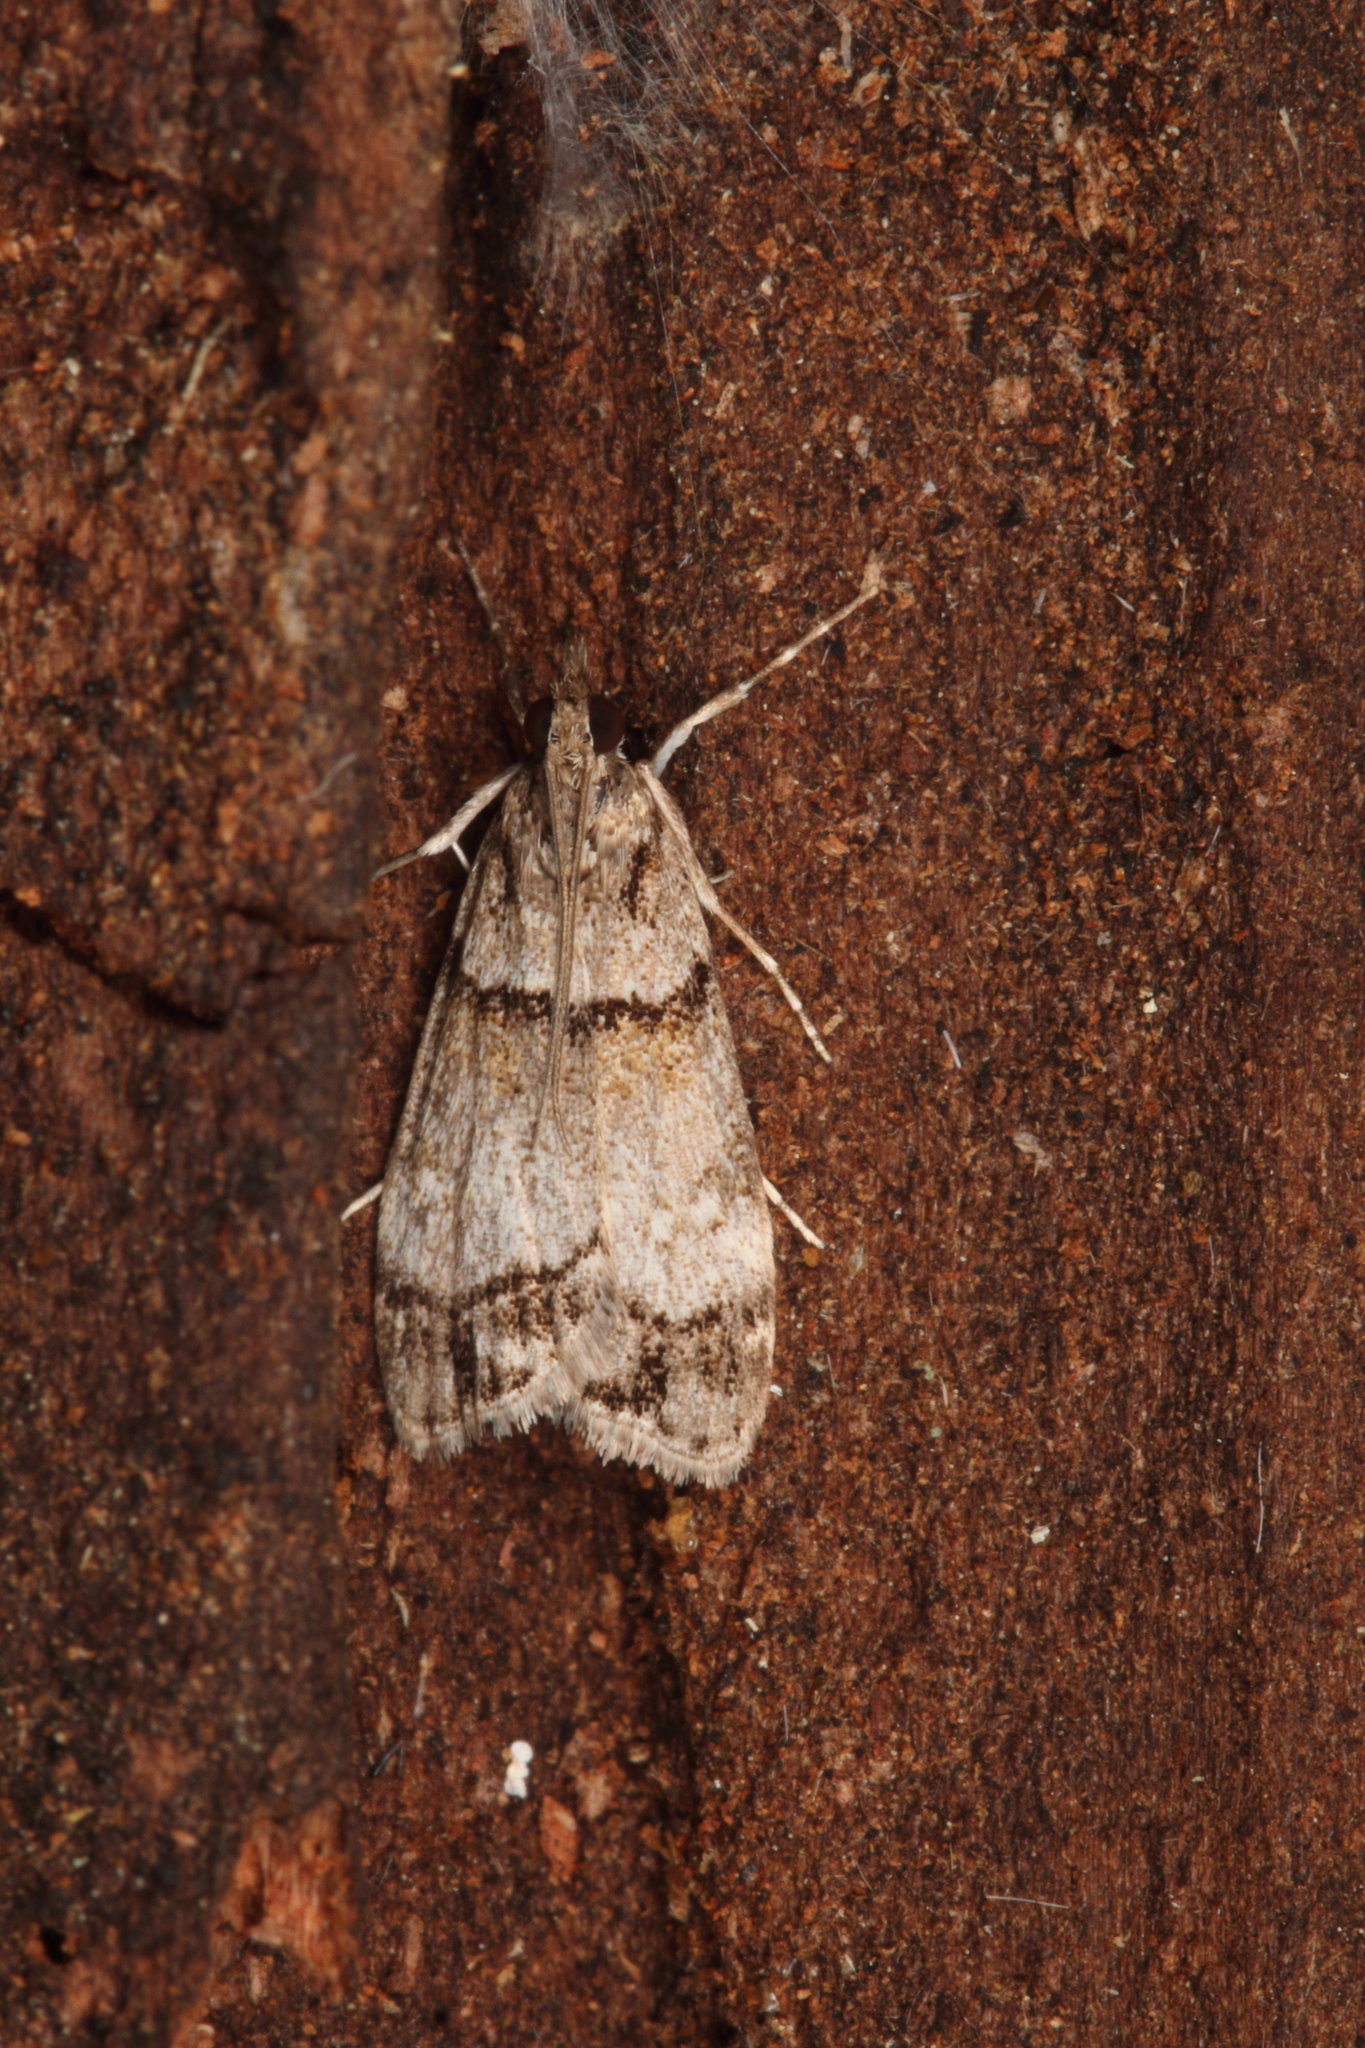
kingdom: Animalia
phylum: Arthropoda
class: Insecta
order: Lepidoptera
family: Crambidae
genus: Eudonia
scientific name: Eudonia choristis
